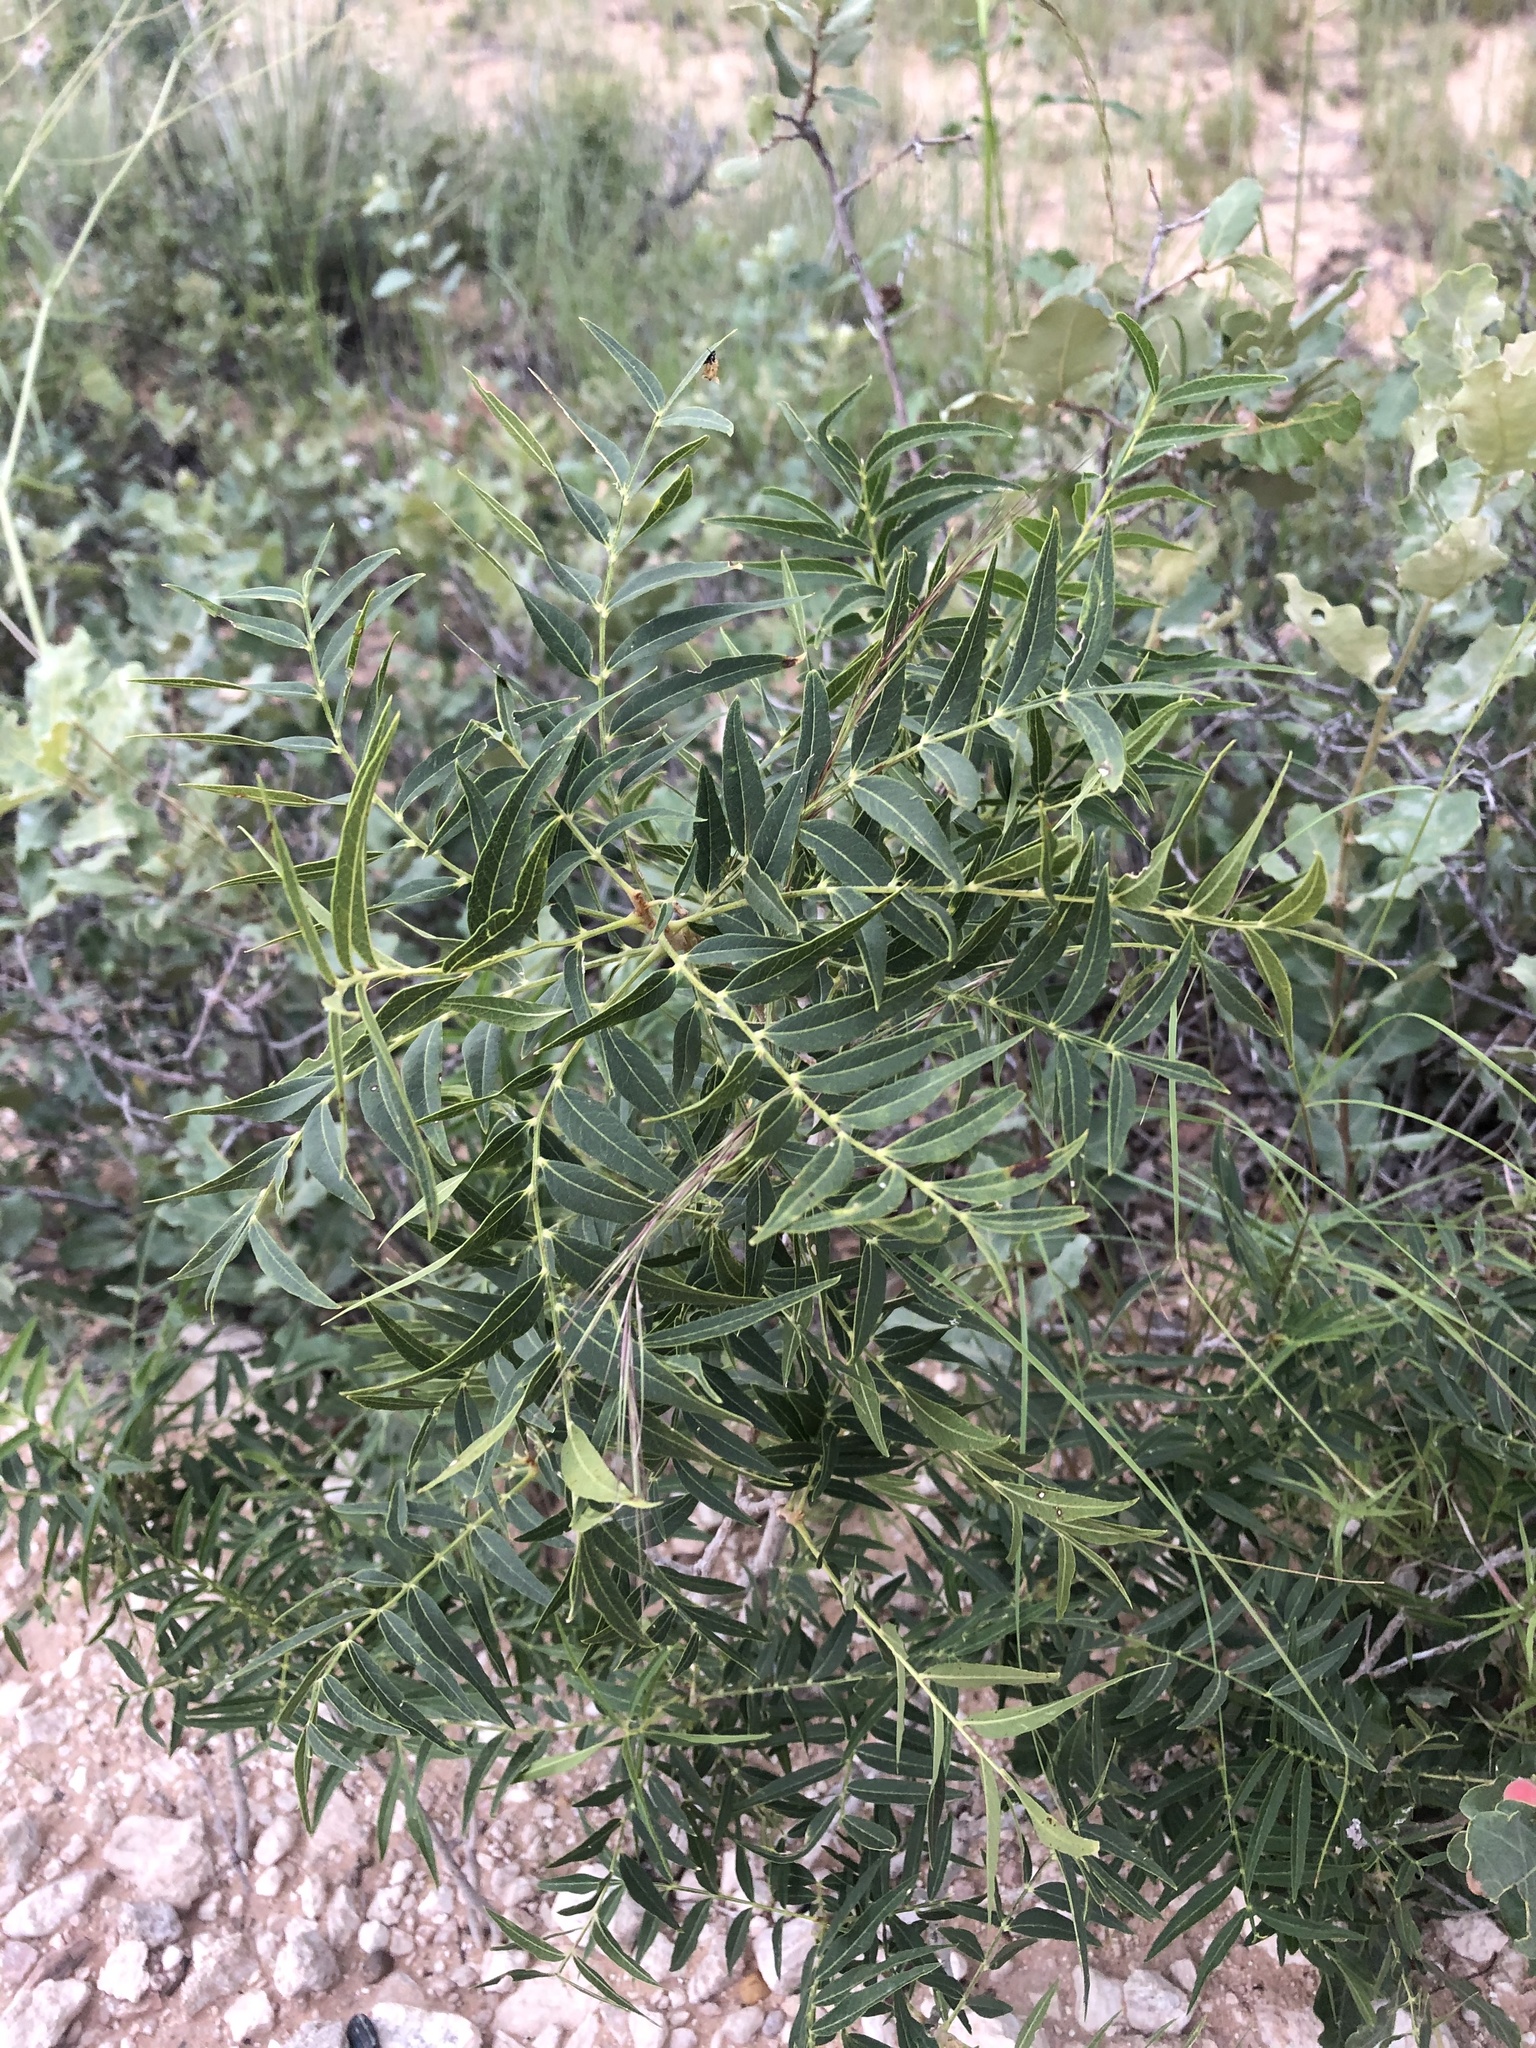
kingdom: Plantae
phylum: Tracheophyta
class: Magnoliopsida
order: Sapindales
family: Sapindaceae
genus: Sapindus
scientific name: Sapindus drummondii
